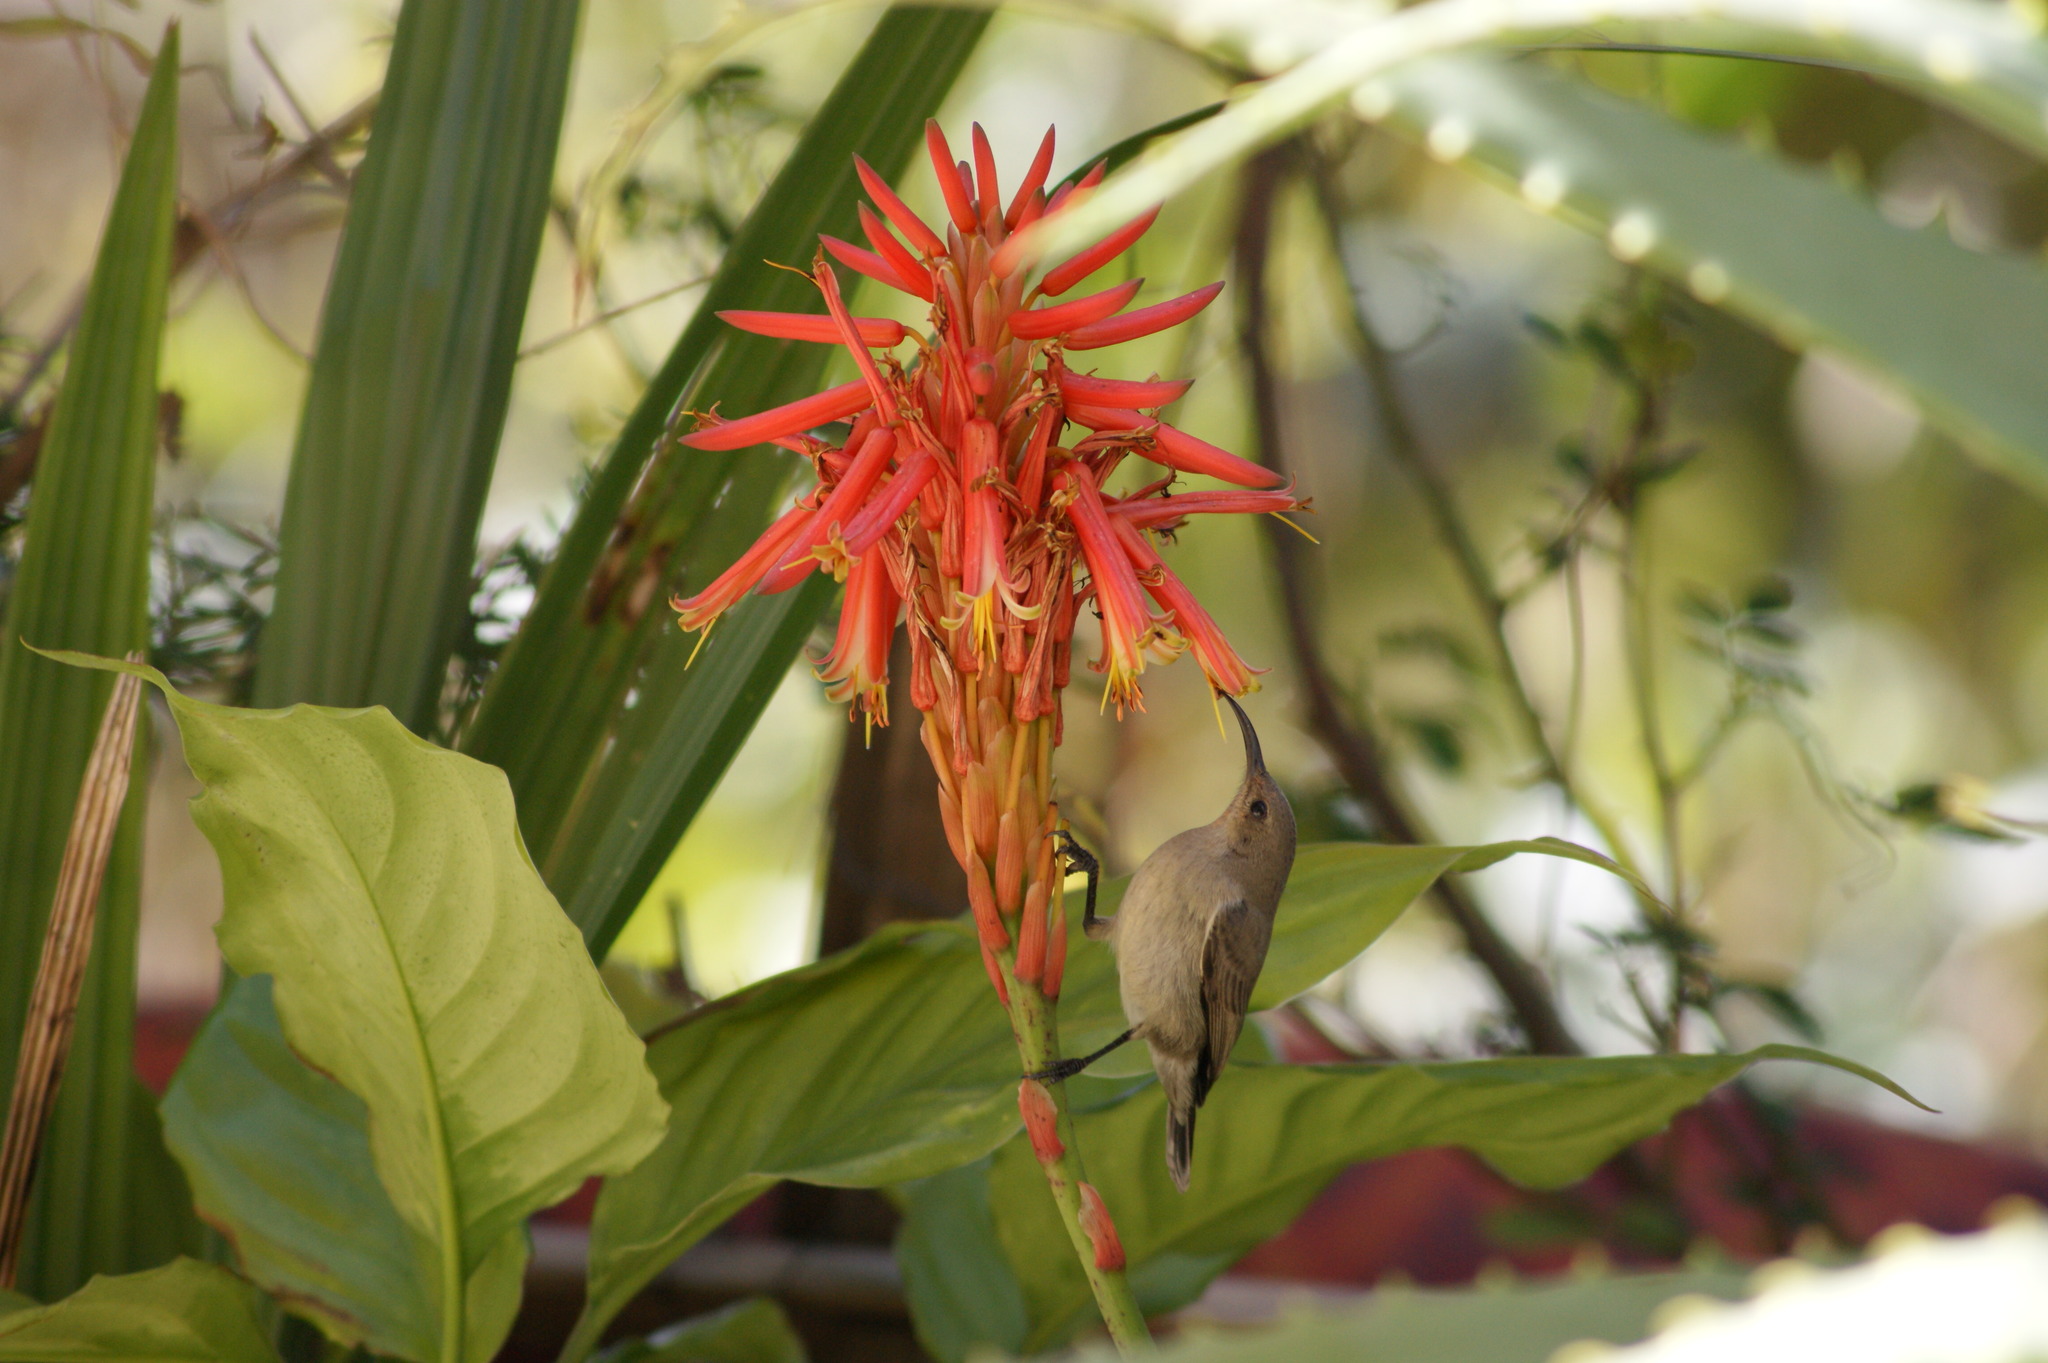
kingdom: Animalia
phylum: Chordata
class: Aves
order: Passeriformes
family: Nectariniidae
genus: Cinnyris
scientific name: Cinnyris osea
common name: Palestine sunbird
